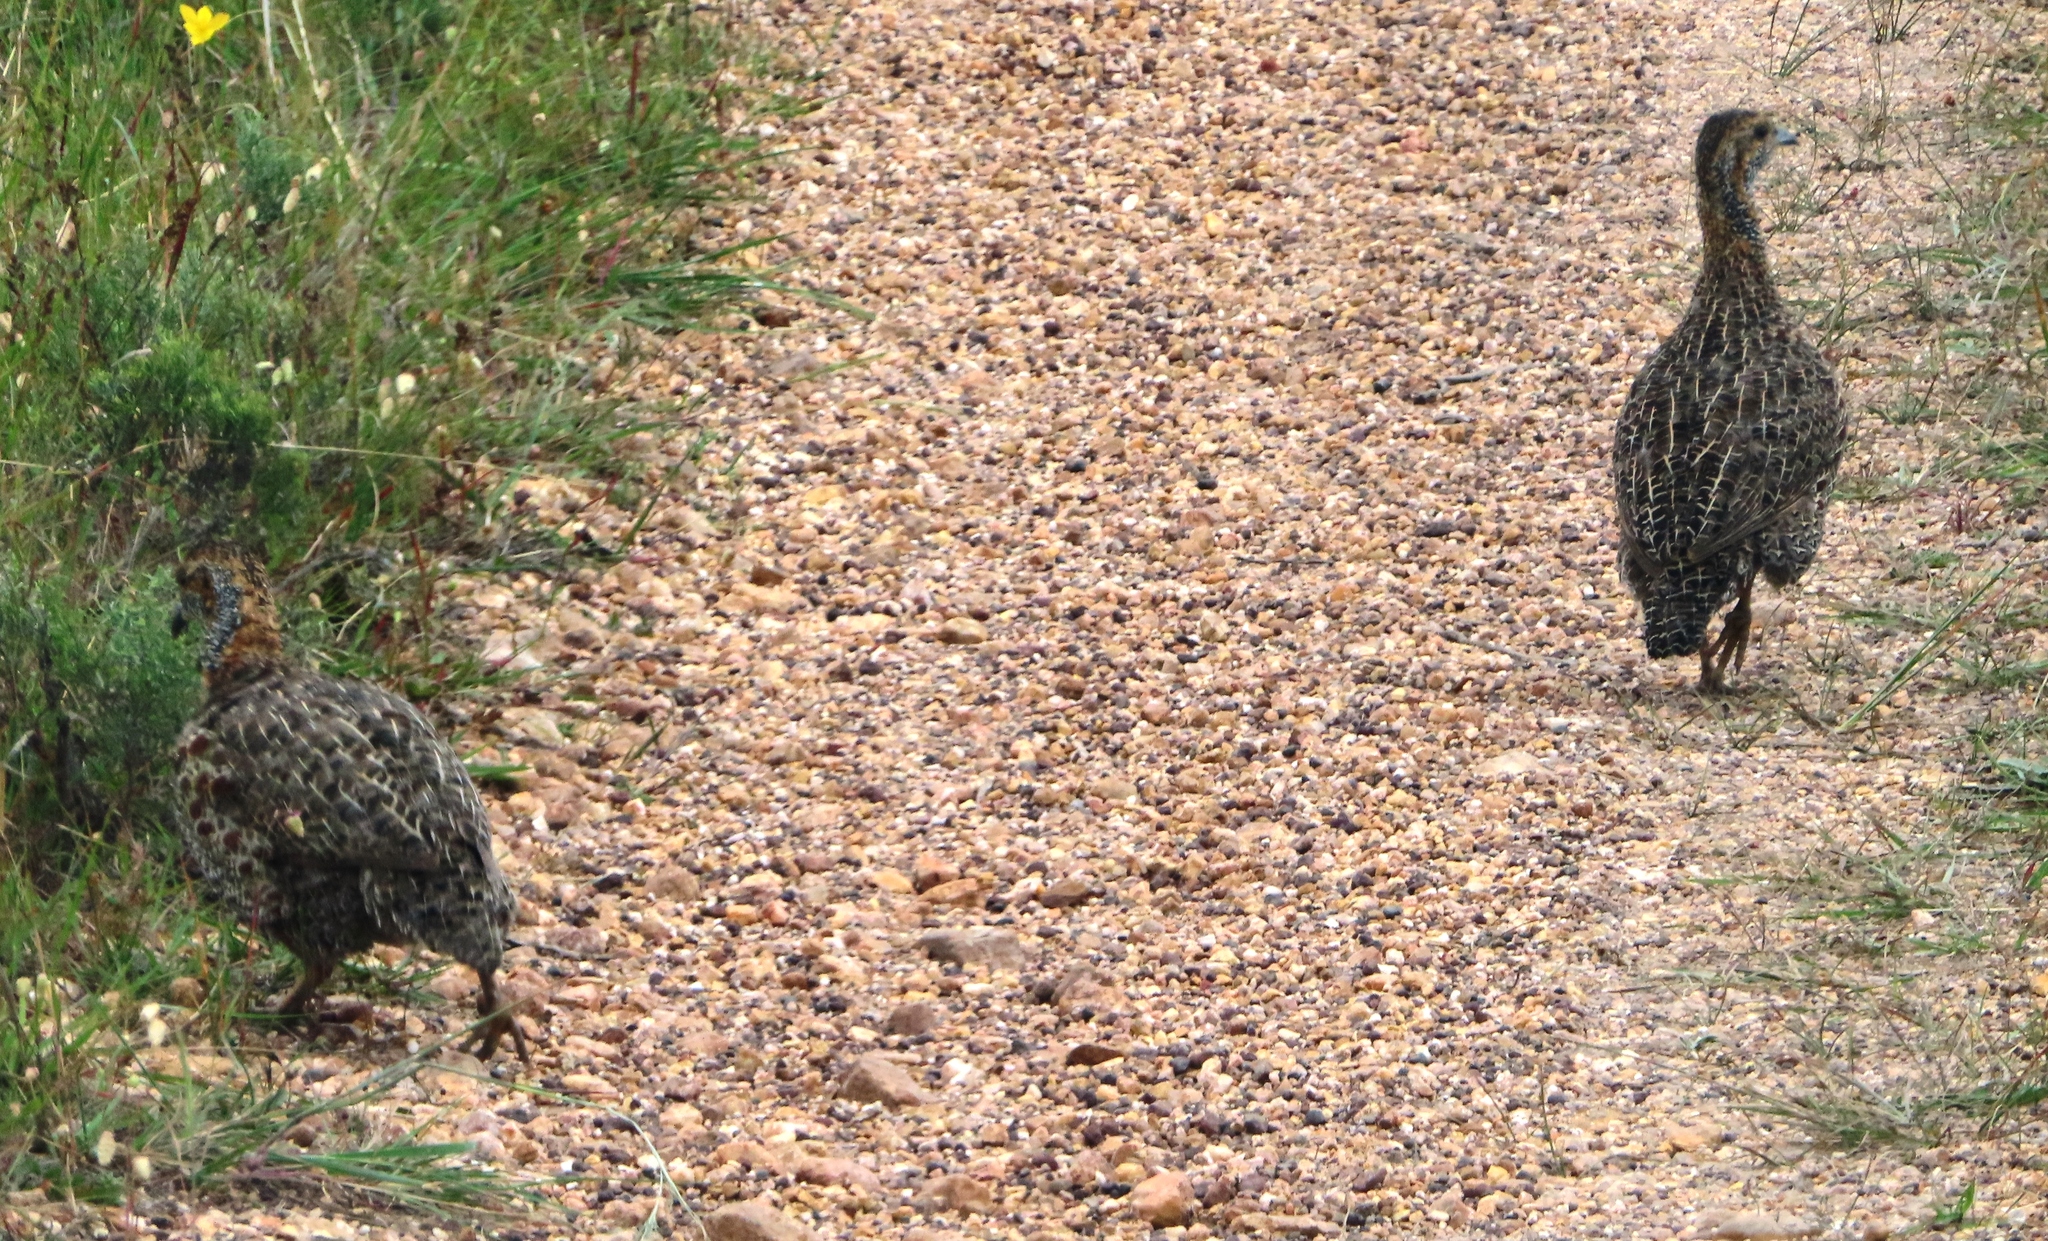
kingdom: Animalia
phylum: Chordata
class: Aves
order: Galliformes
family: Phasianidae
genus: Scleroptila
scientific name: Scleroptila afra
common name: Grey-winged francolin
